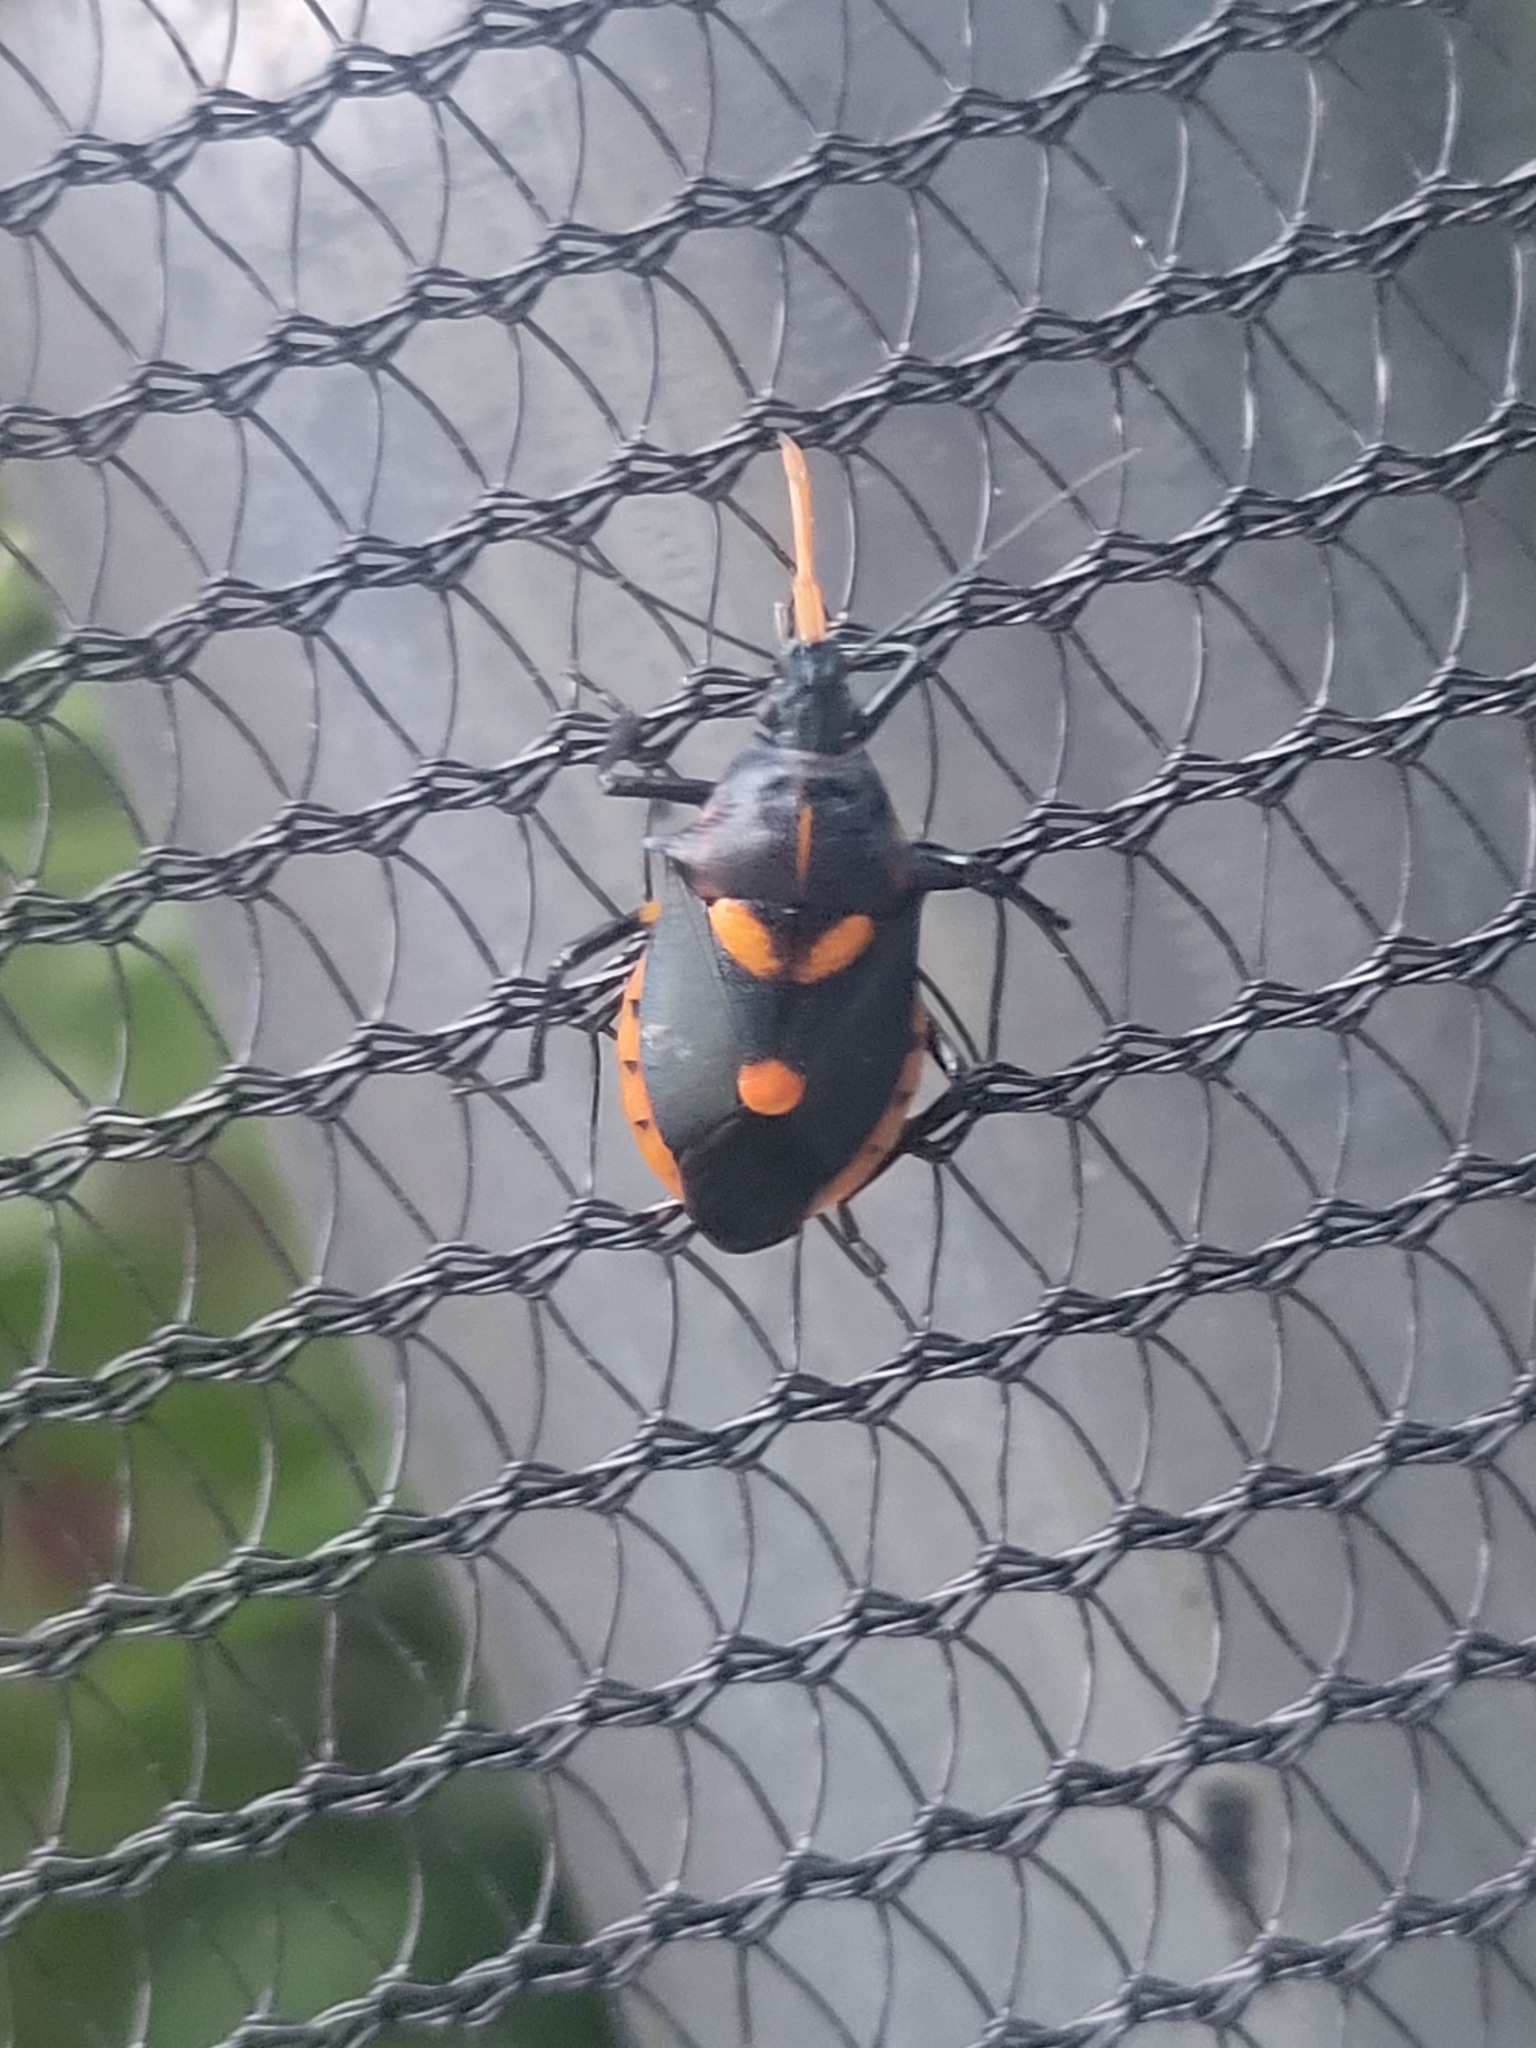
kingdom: Animalia
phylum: Arthropoda
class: Insecta
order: Hemiptera
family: Pentatomidae
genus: Euthyrhynchus
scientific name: Euthyrhynchus floridanus
